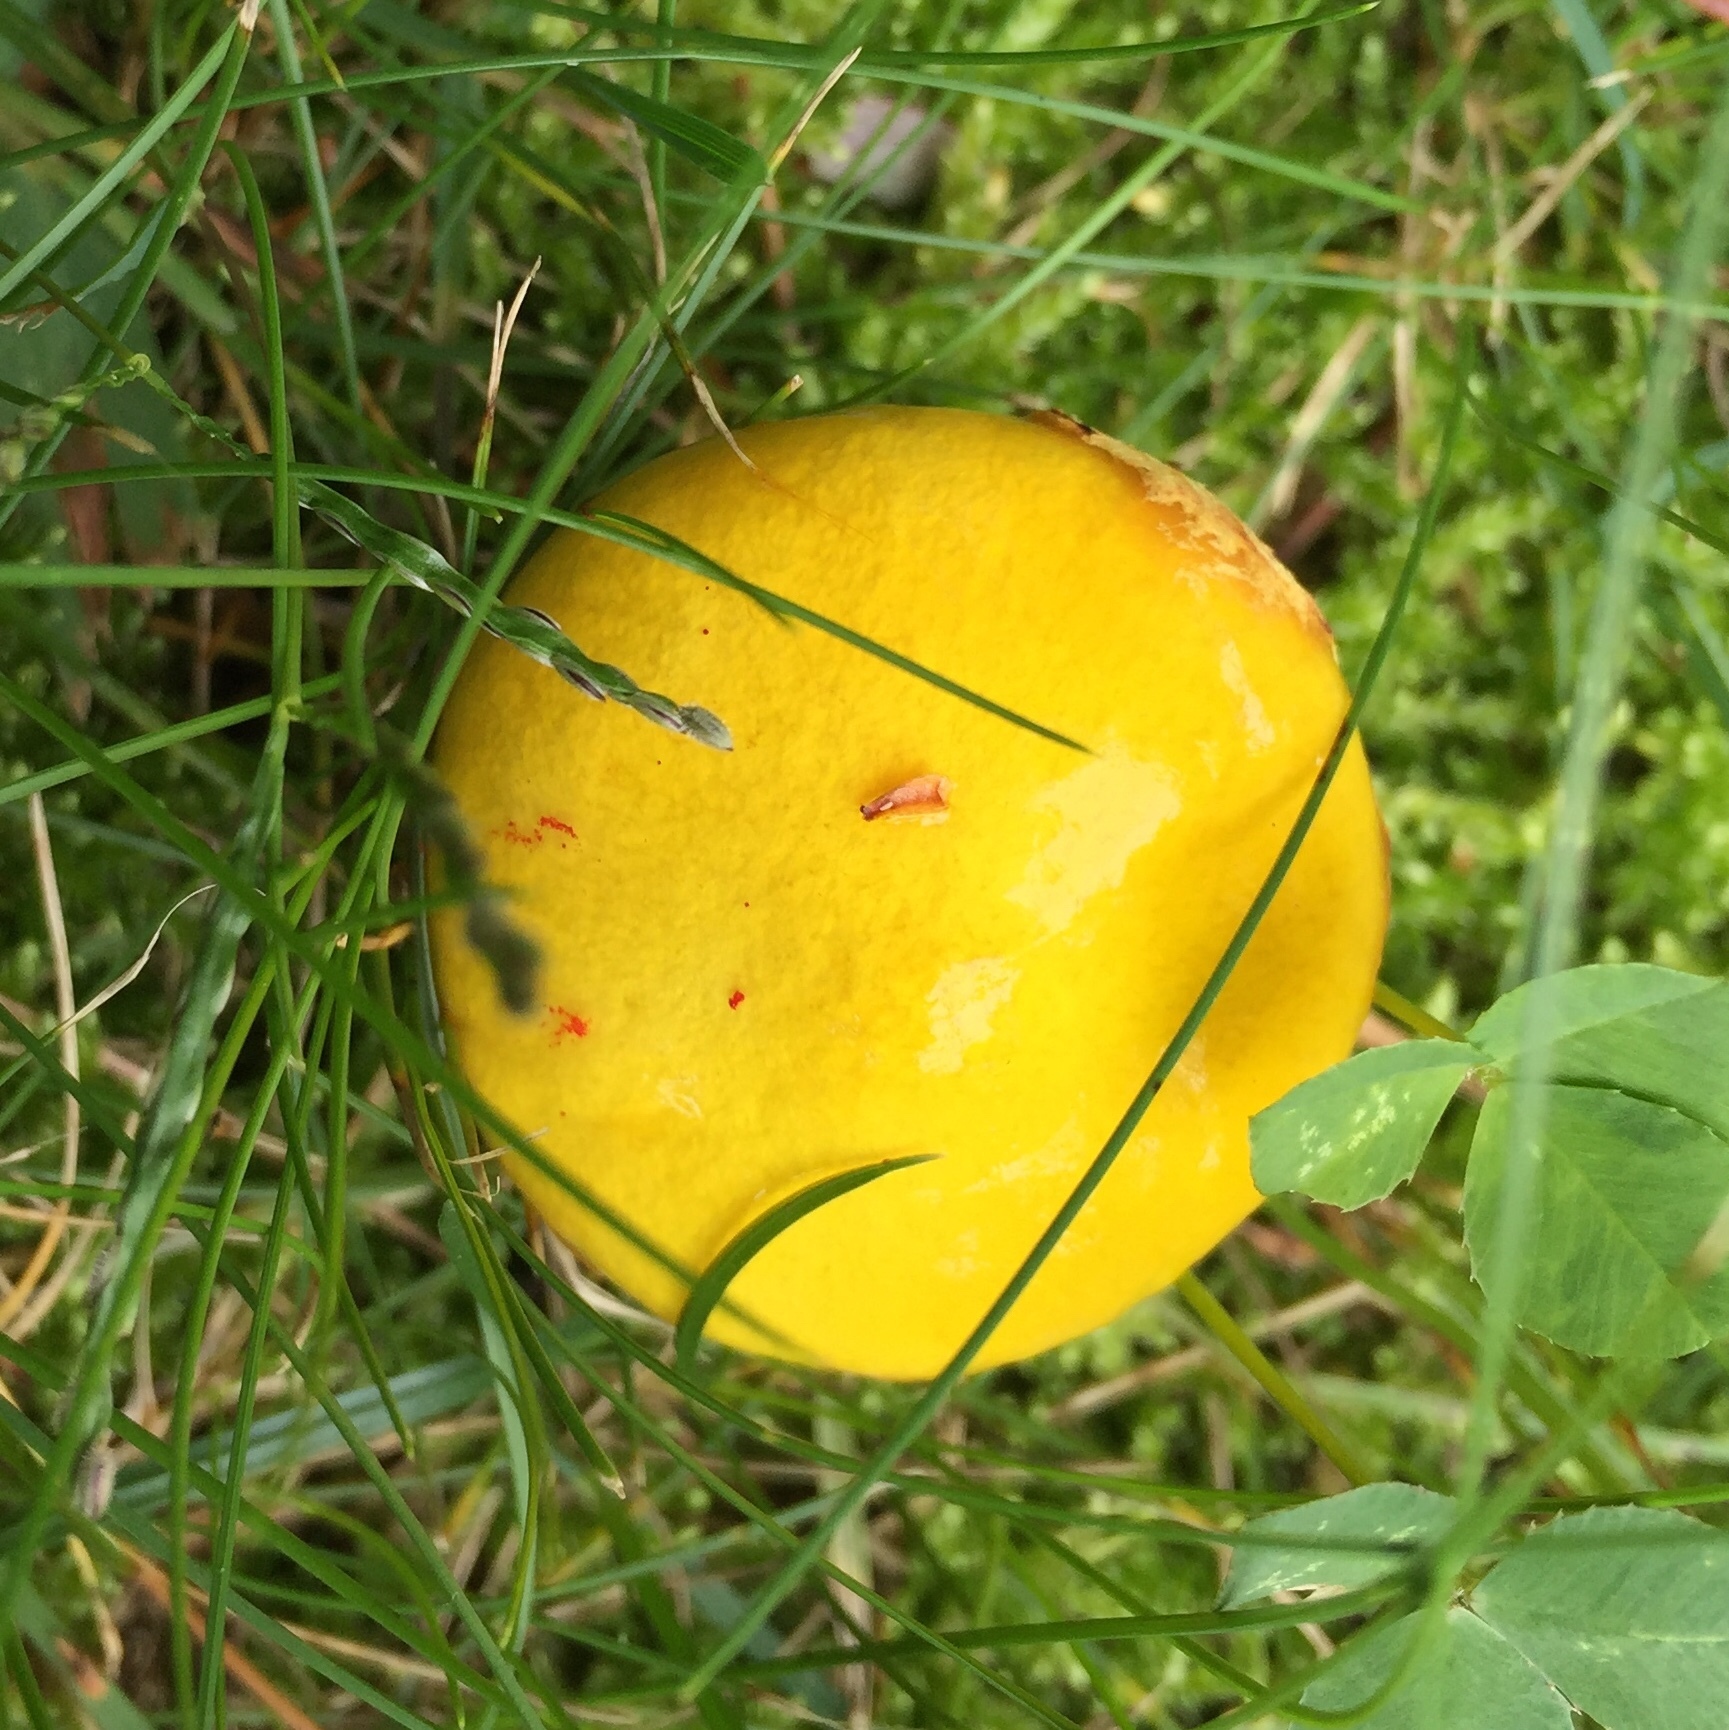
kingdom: Fungi
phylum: Basidiomycota
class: Agaricomycetes
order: Boletales
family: Suillaceae
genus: Suillus
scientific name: Suillus americanus
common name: Chicken fat mushroom
